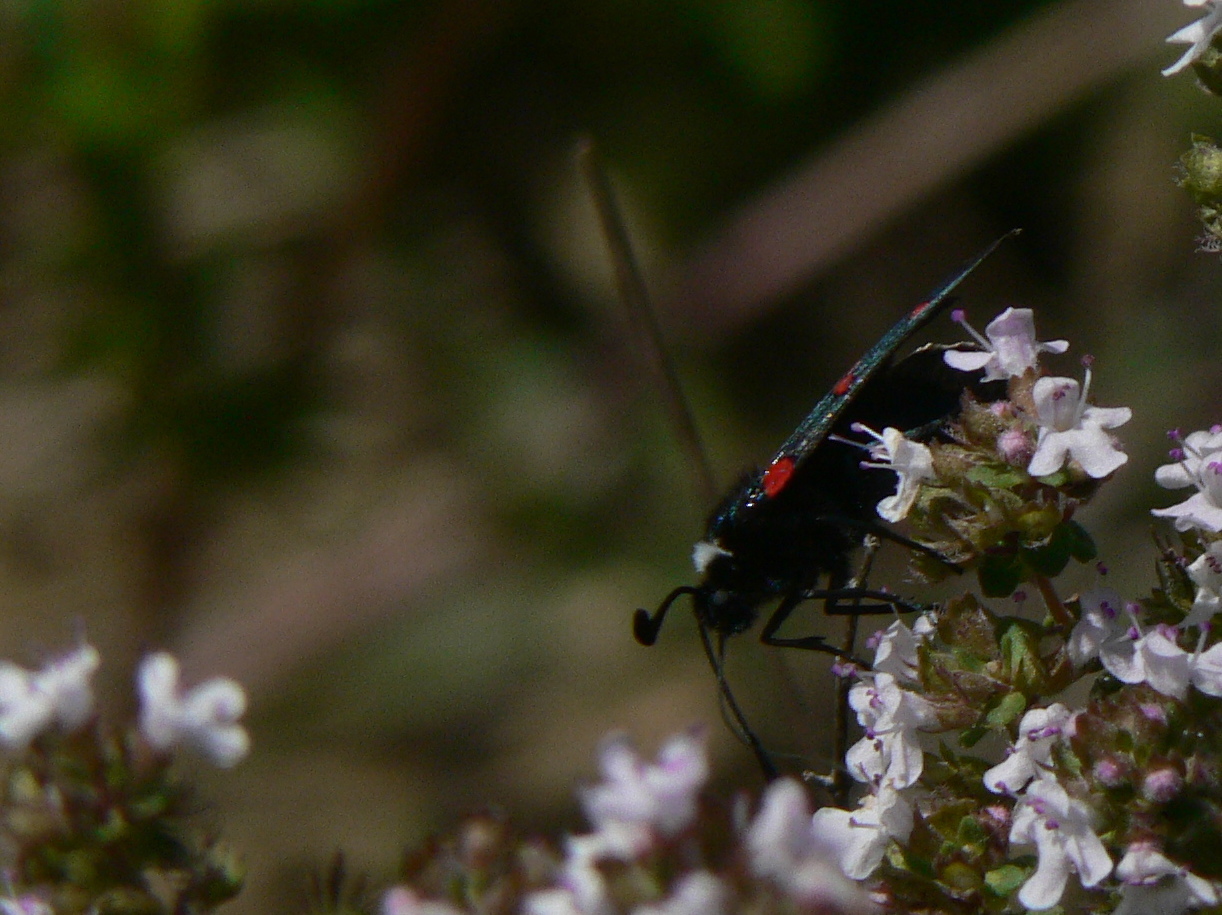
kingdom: Animalia
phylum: Arthropoda
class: Insecta
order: Lepidoptera
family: Zygaenidae
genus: Zygaena
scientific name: Zygaena lavandulae
